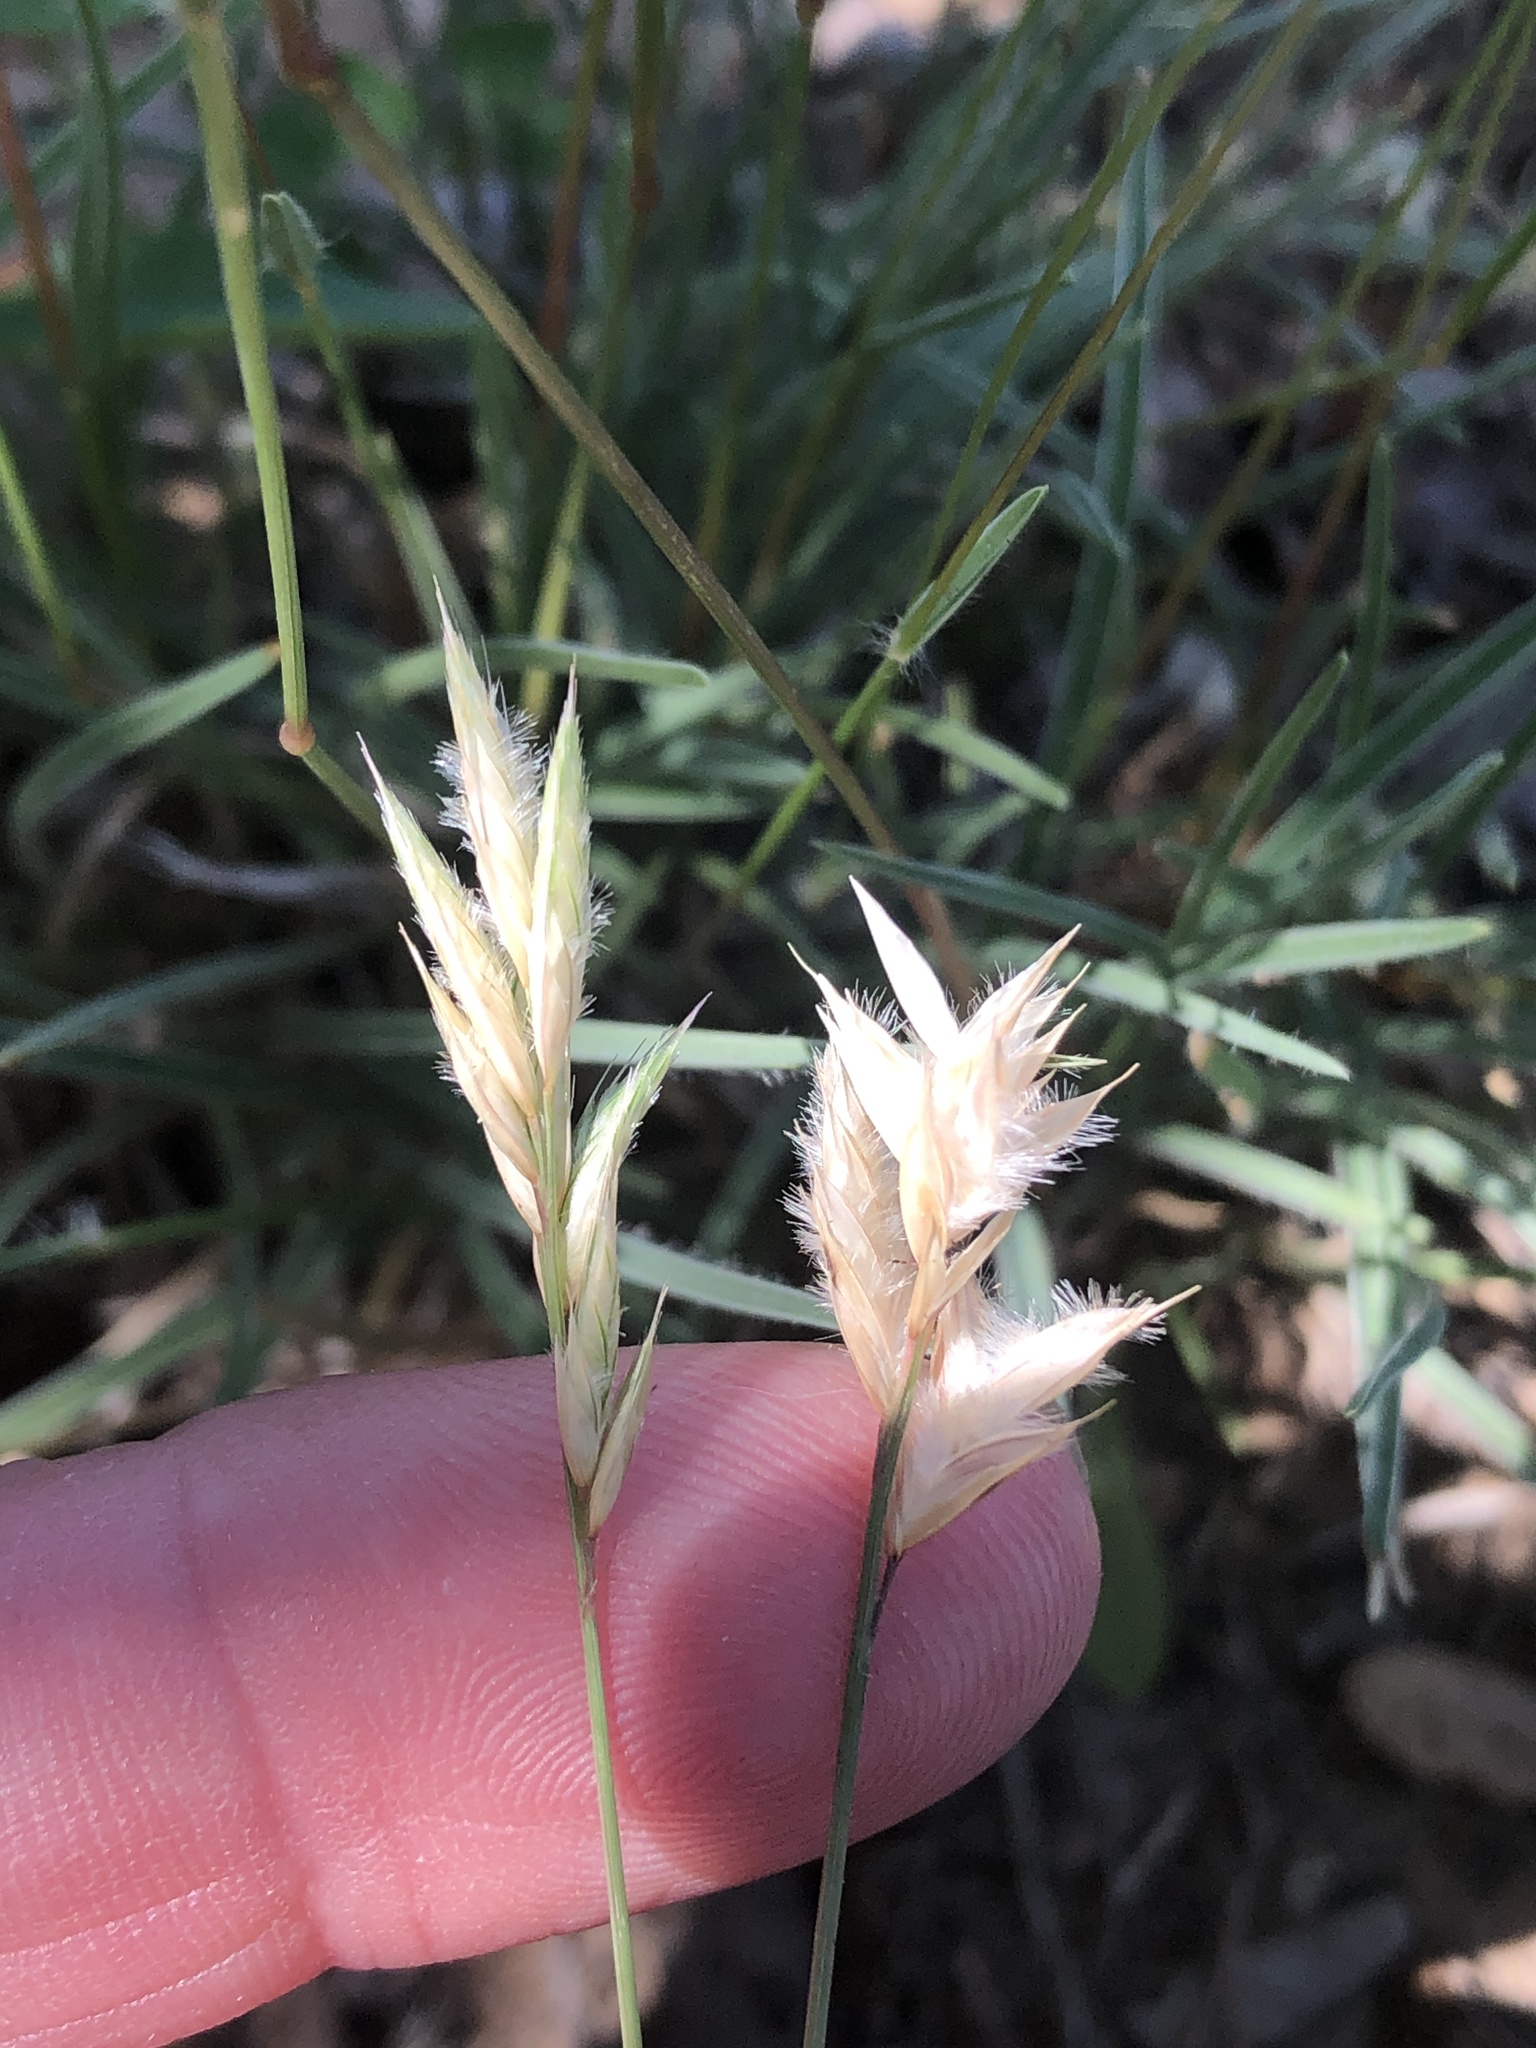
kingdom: Plantae
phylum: Tracheophyta
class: Liliopsida
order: Poales
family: Poaceae
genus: Erioneuron
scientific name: Erioneuron pilosum
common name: Hairy woolly grass
